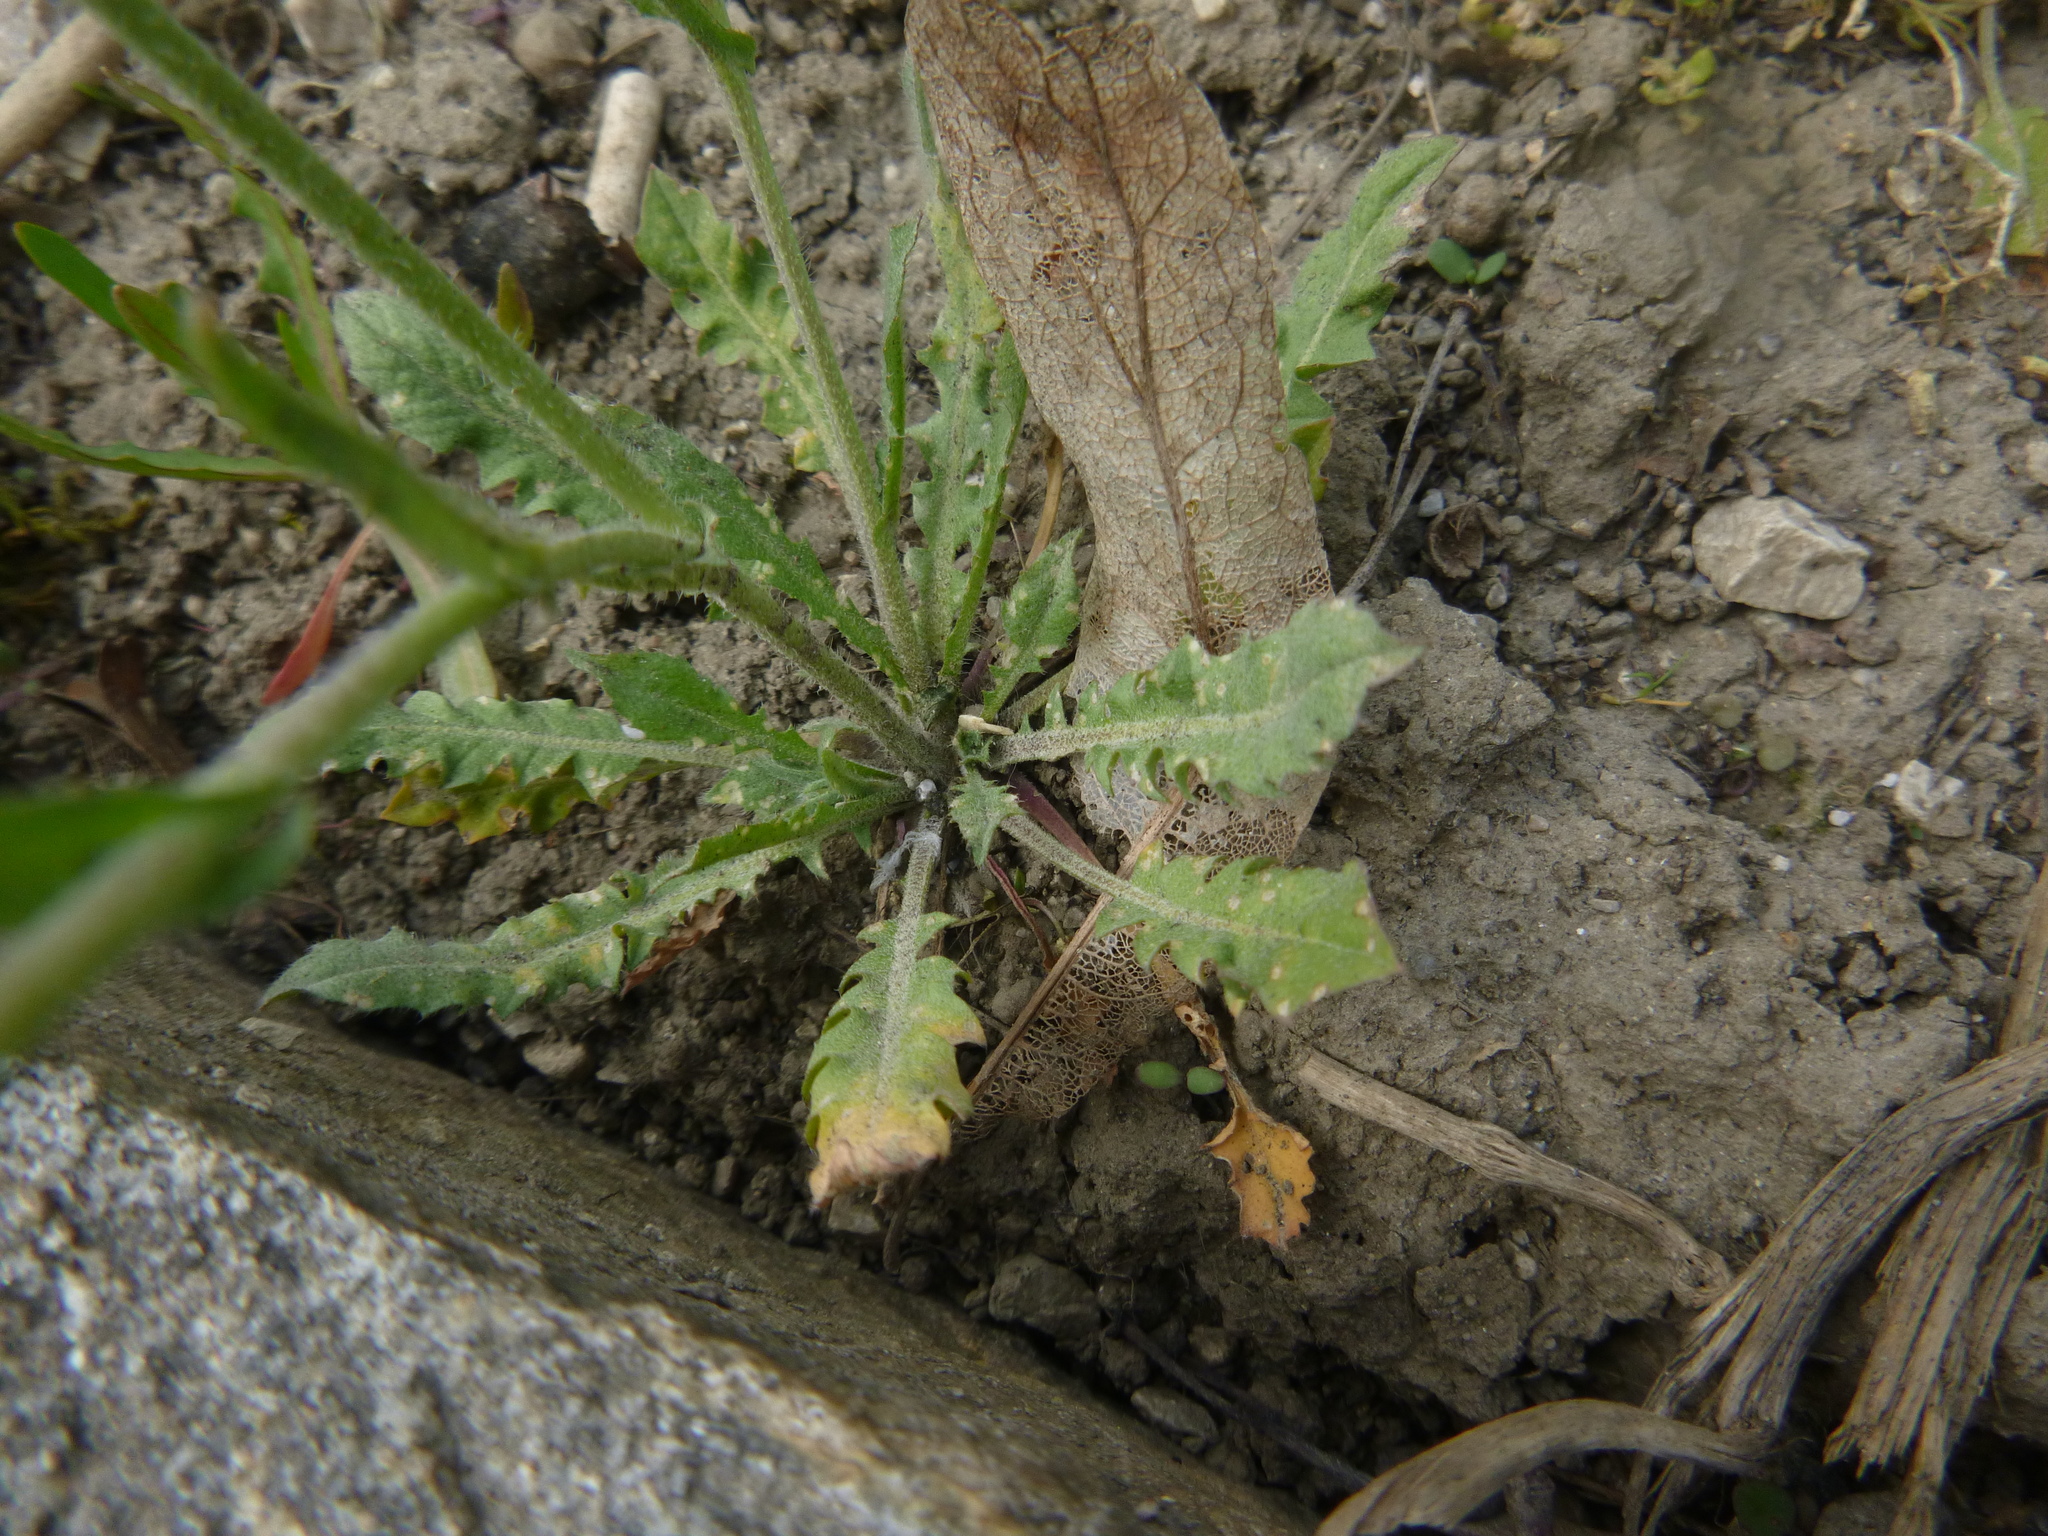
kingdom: Plantae
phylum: Tracheophyta
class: Magnoliopsida
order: Brassicales
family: Brassicaceae
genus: Capsella
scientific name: Capsella bursa-pastoris
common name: Shepherd's purse
